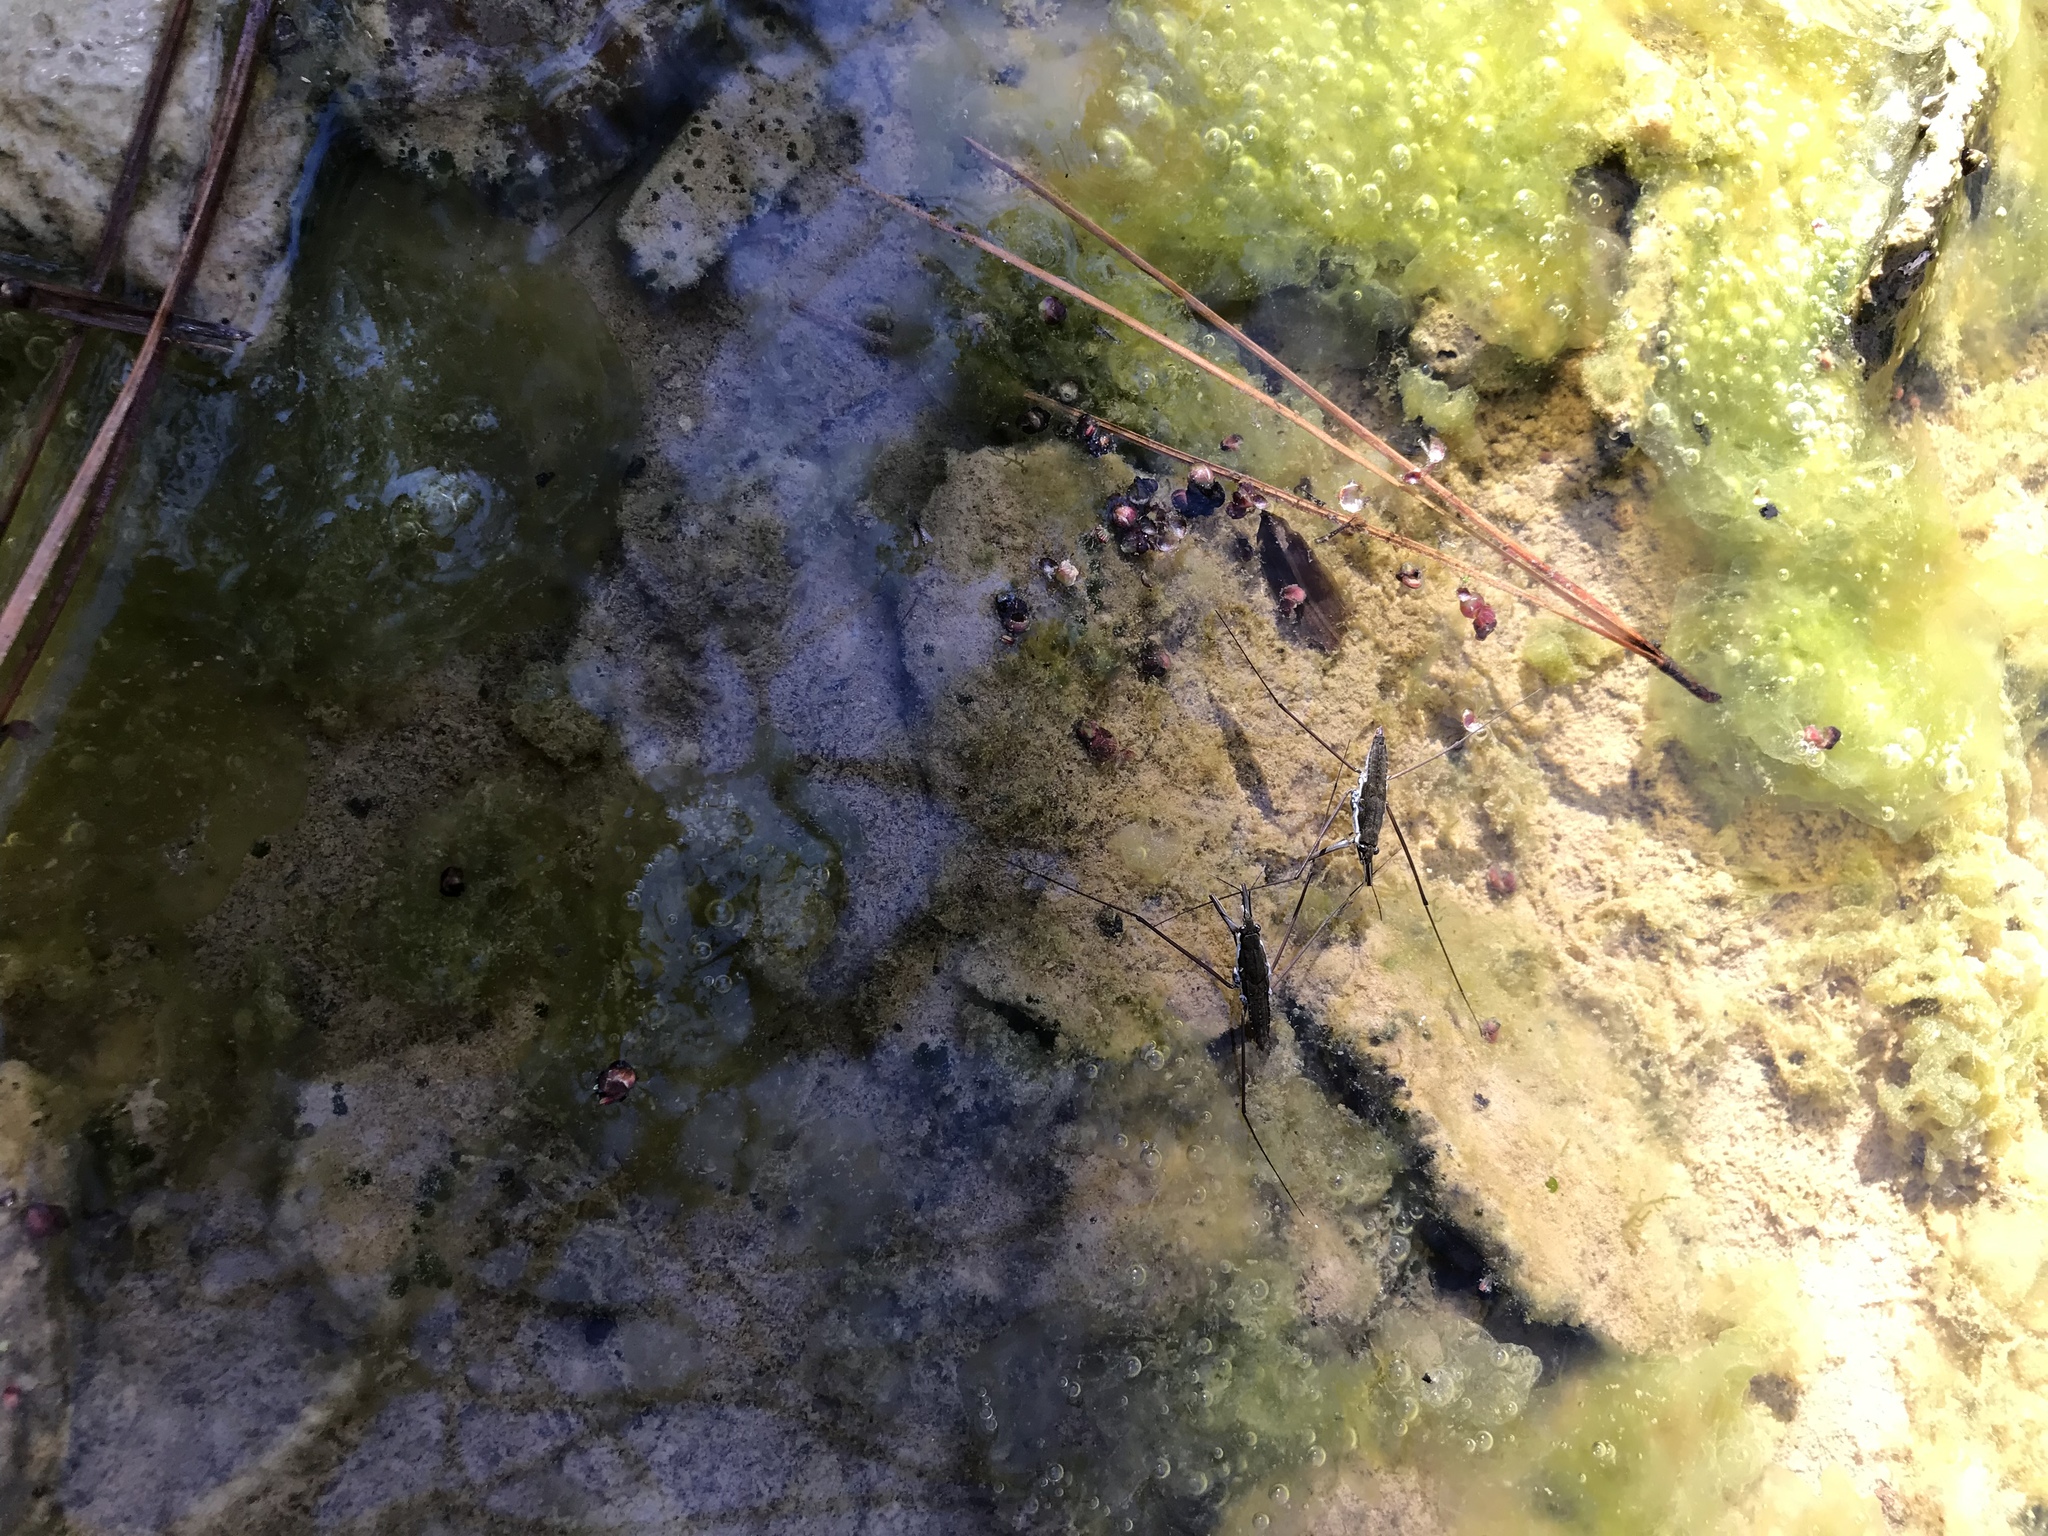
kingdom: Animalia
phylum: Arthropoda
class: Insecta
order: Hemiptera
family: Gerridae
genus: Aquarius
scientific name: Aquarius
